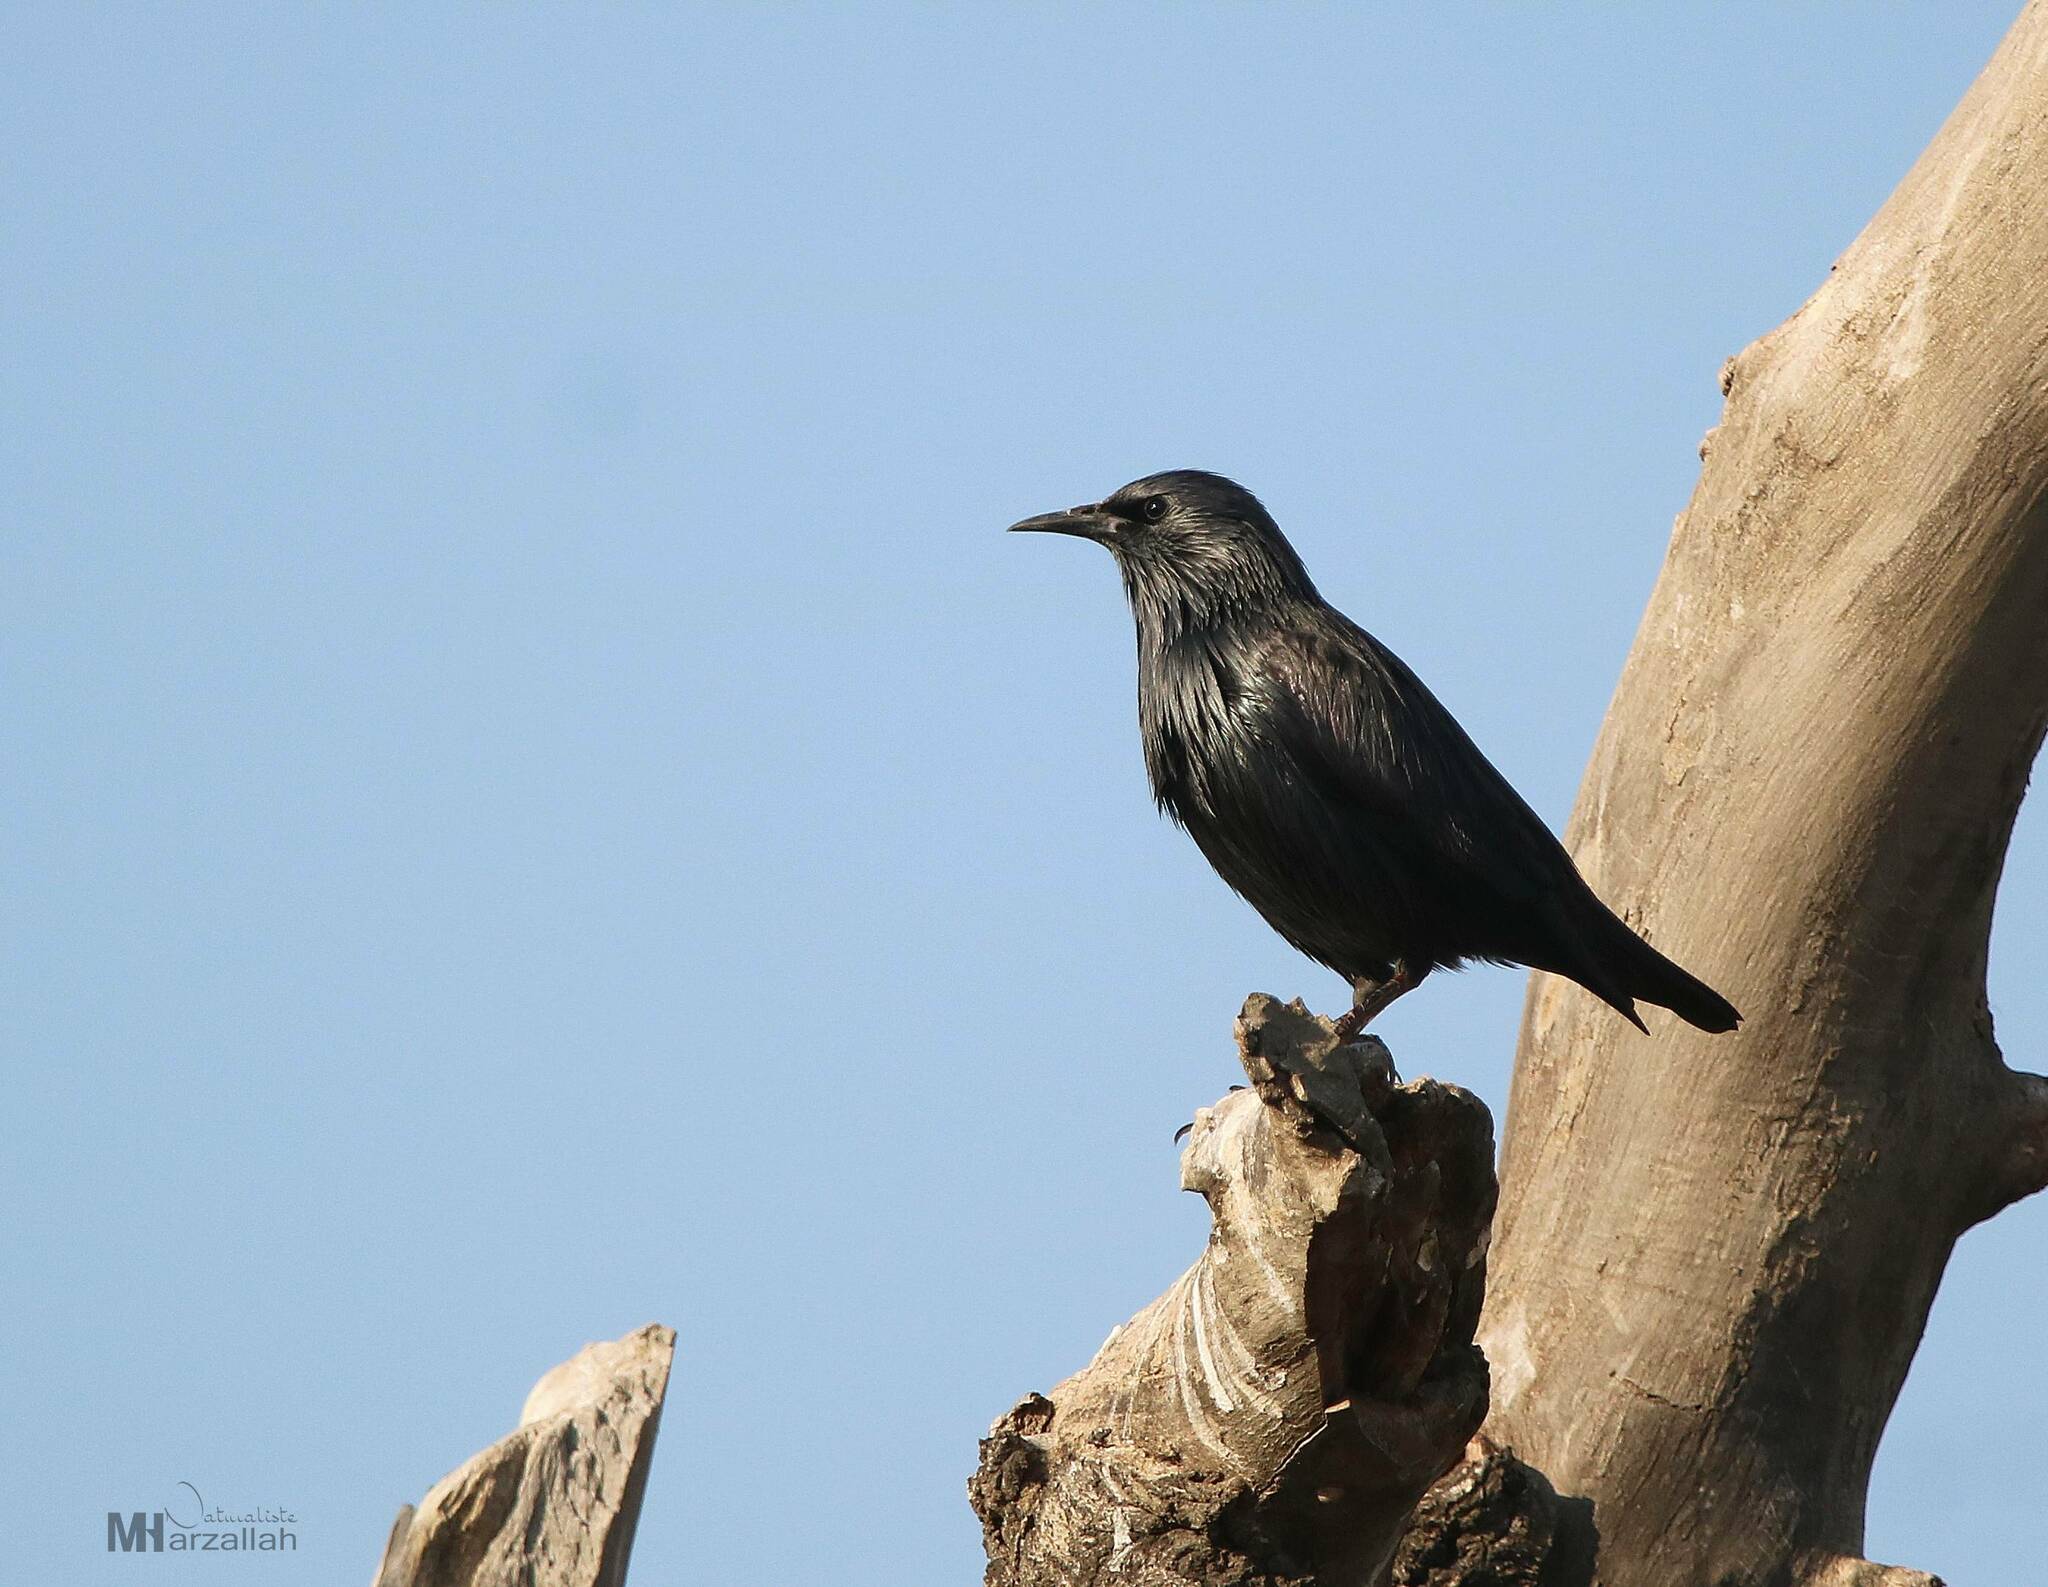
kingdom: Animalia
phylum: Chordata
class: Aves
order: Passeriformes
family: Sturnidae
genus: Sturnus
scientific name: Sturnus unicolor
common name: Spotless starling
